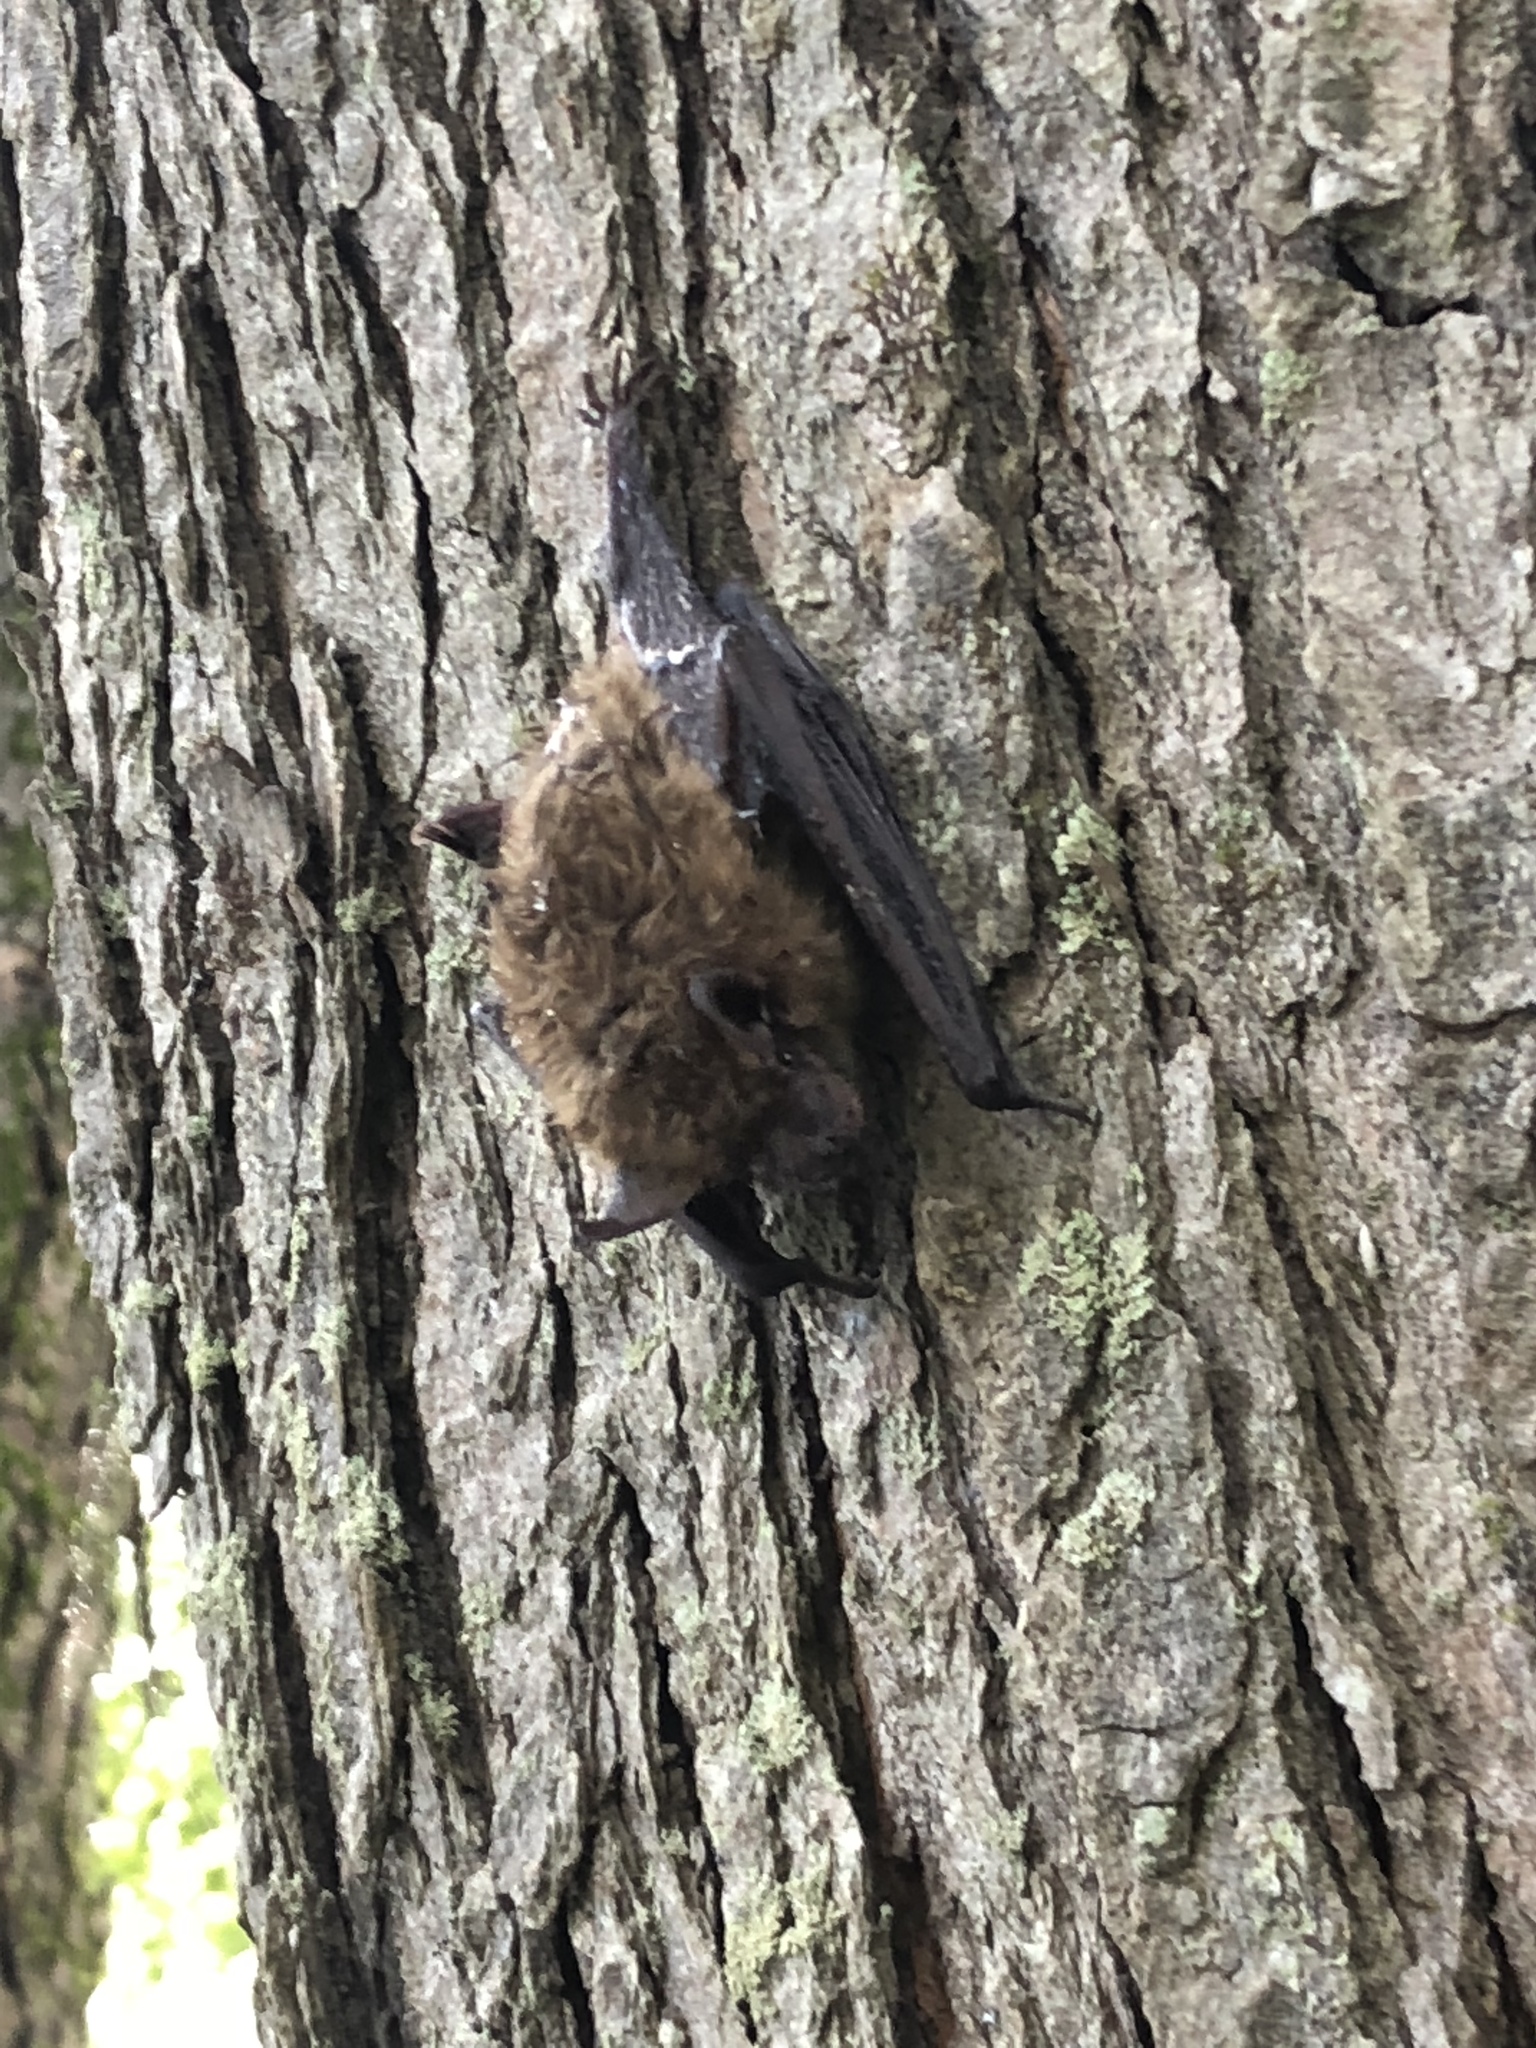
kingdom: Animalia
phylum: Chordata
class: Mammalia
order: Chiroptera
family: Vespertilionidae
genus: Eptesicus
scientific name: Eptesicus fuscus
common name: Big brown bat
